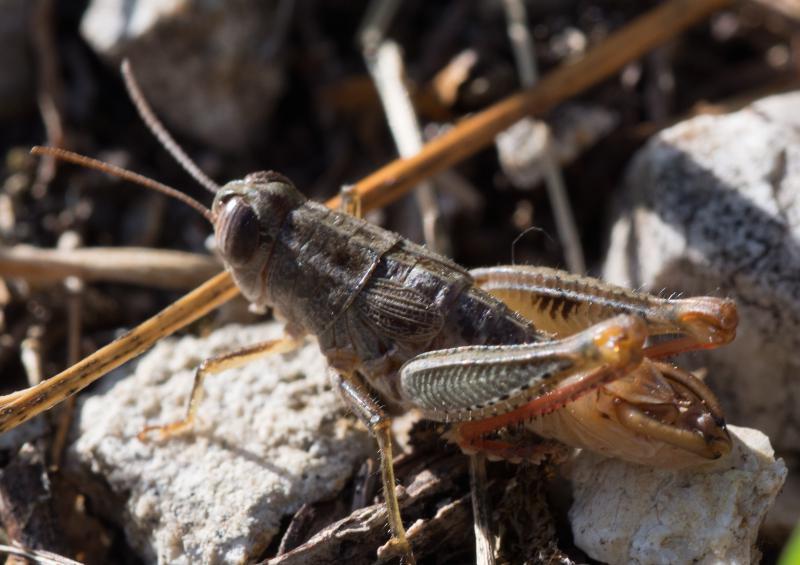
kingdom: Animalia
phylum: Arthropoda
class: Insecta
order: Orthoptera
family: Acrididae
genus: Paracaloptenus
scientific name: Paracaloptenus caloptenoides
